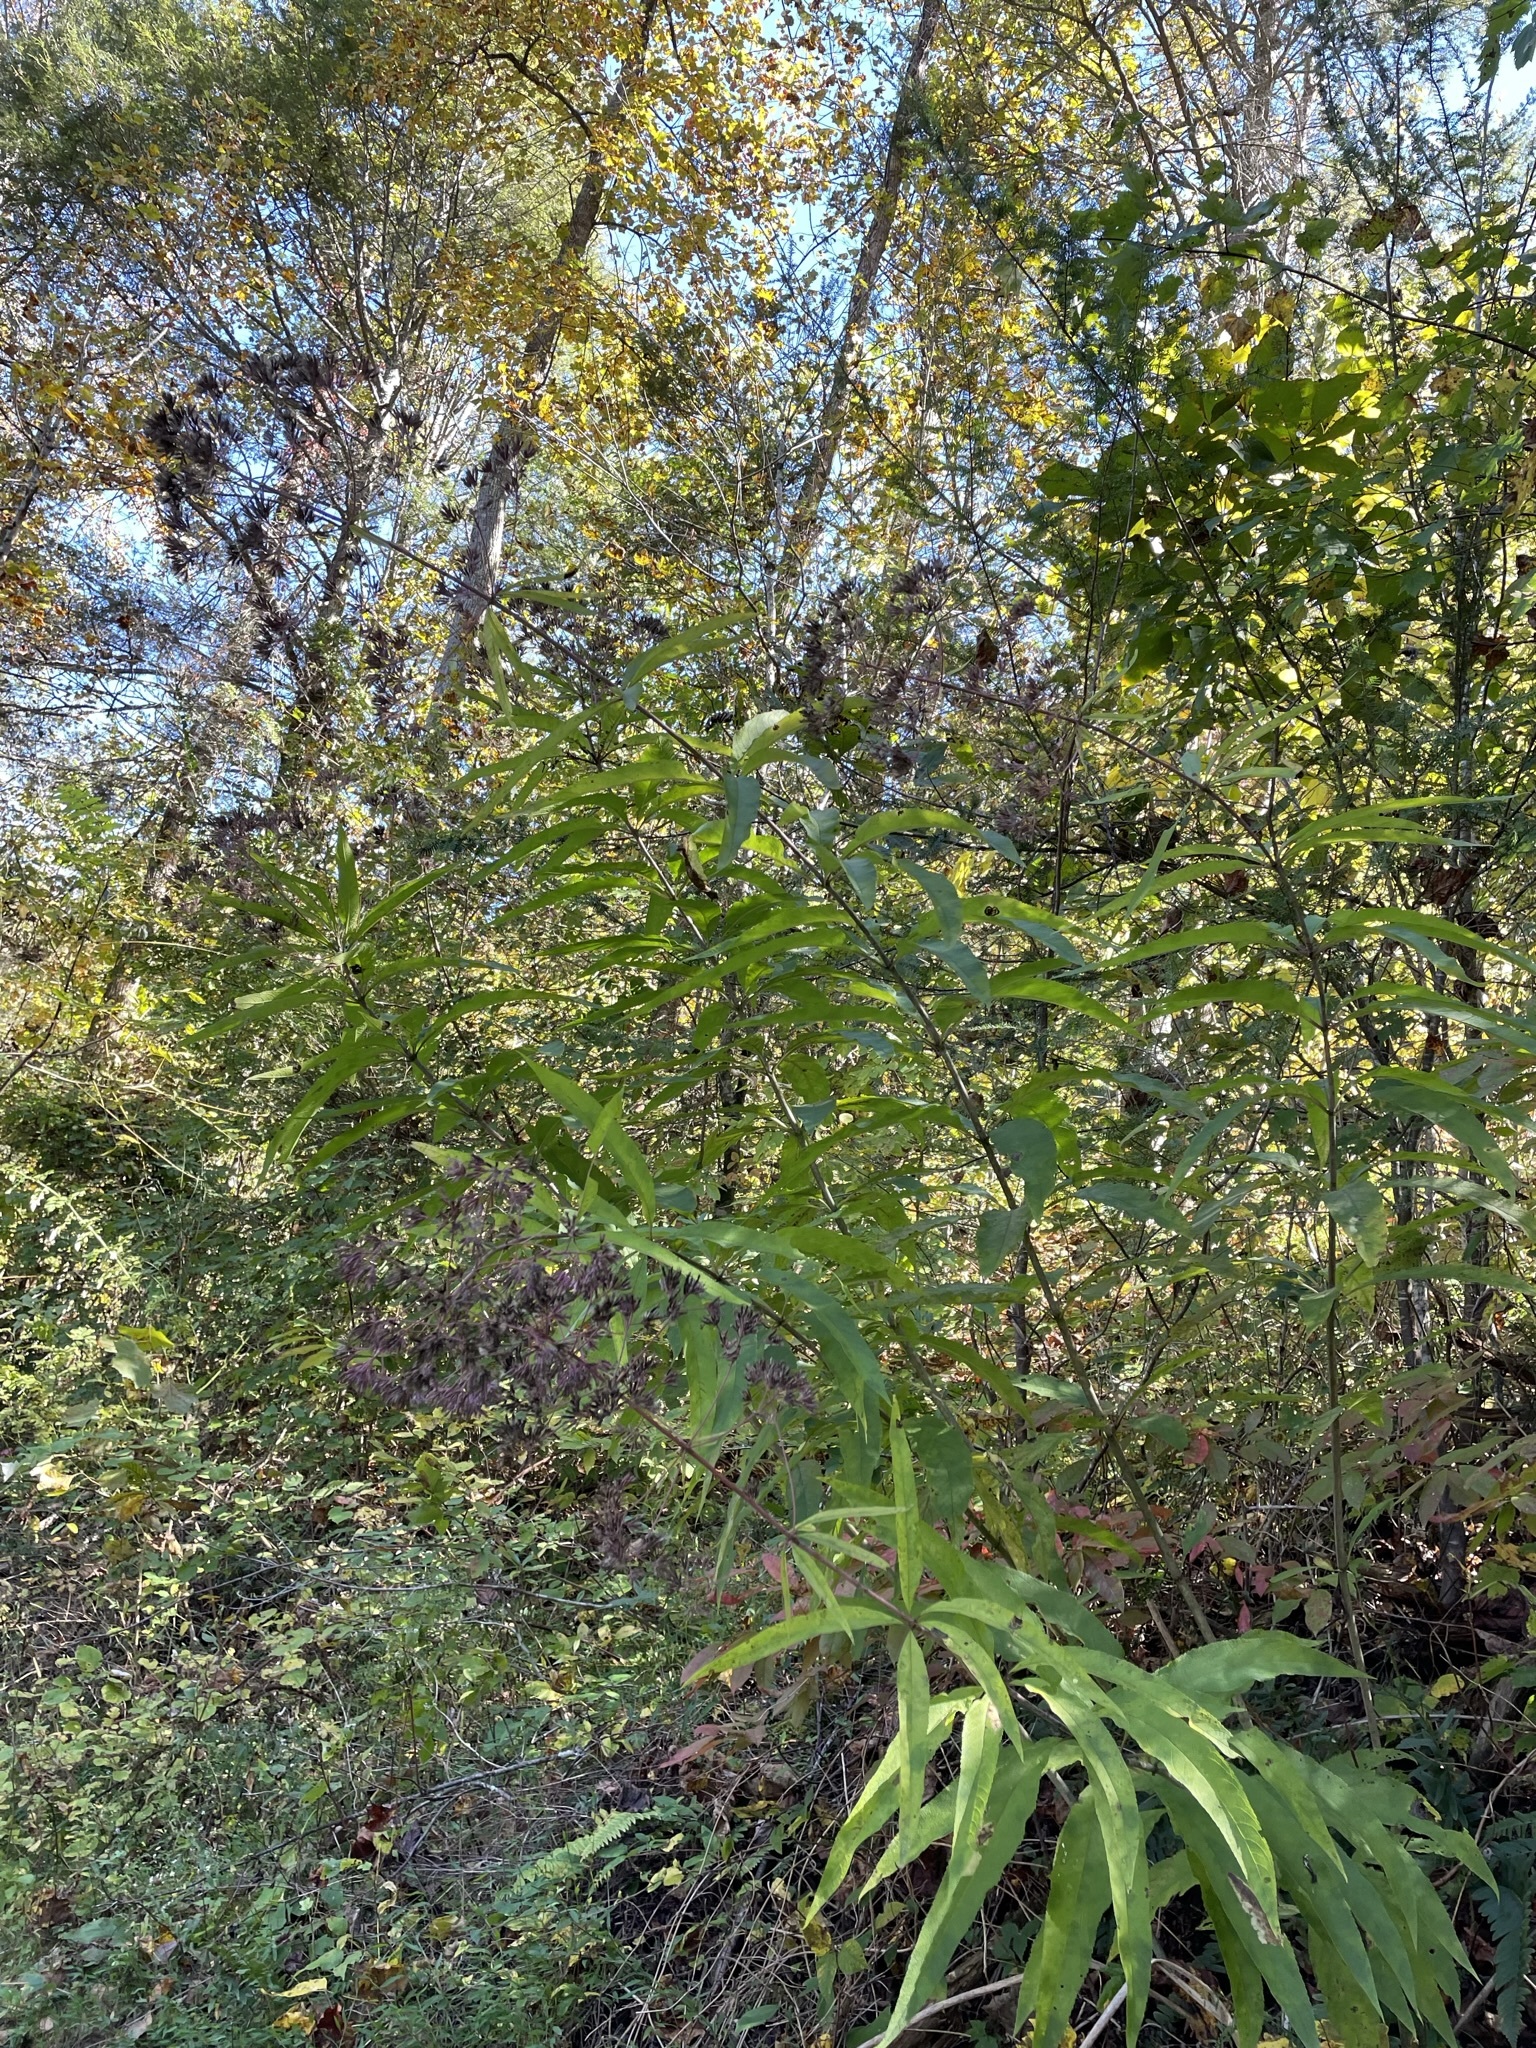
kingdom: Plantae
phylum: Tracheophyta
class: Magnoliopsida
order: Asterales
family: Asteraceae
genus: Eutrochium
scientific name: Eutrochium fistulosum
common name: Trumpetweed
